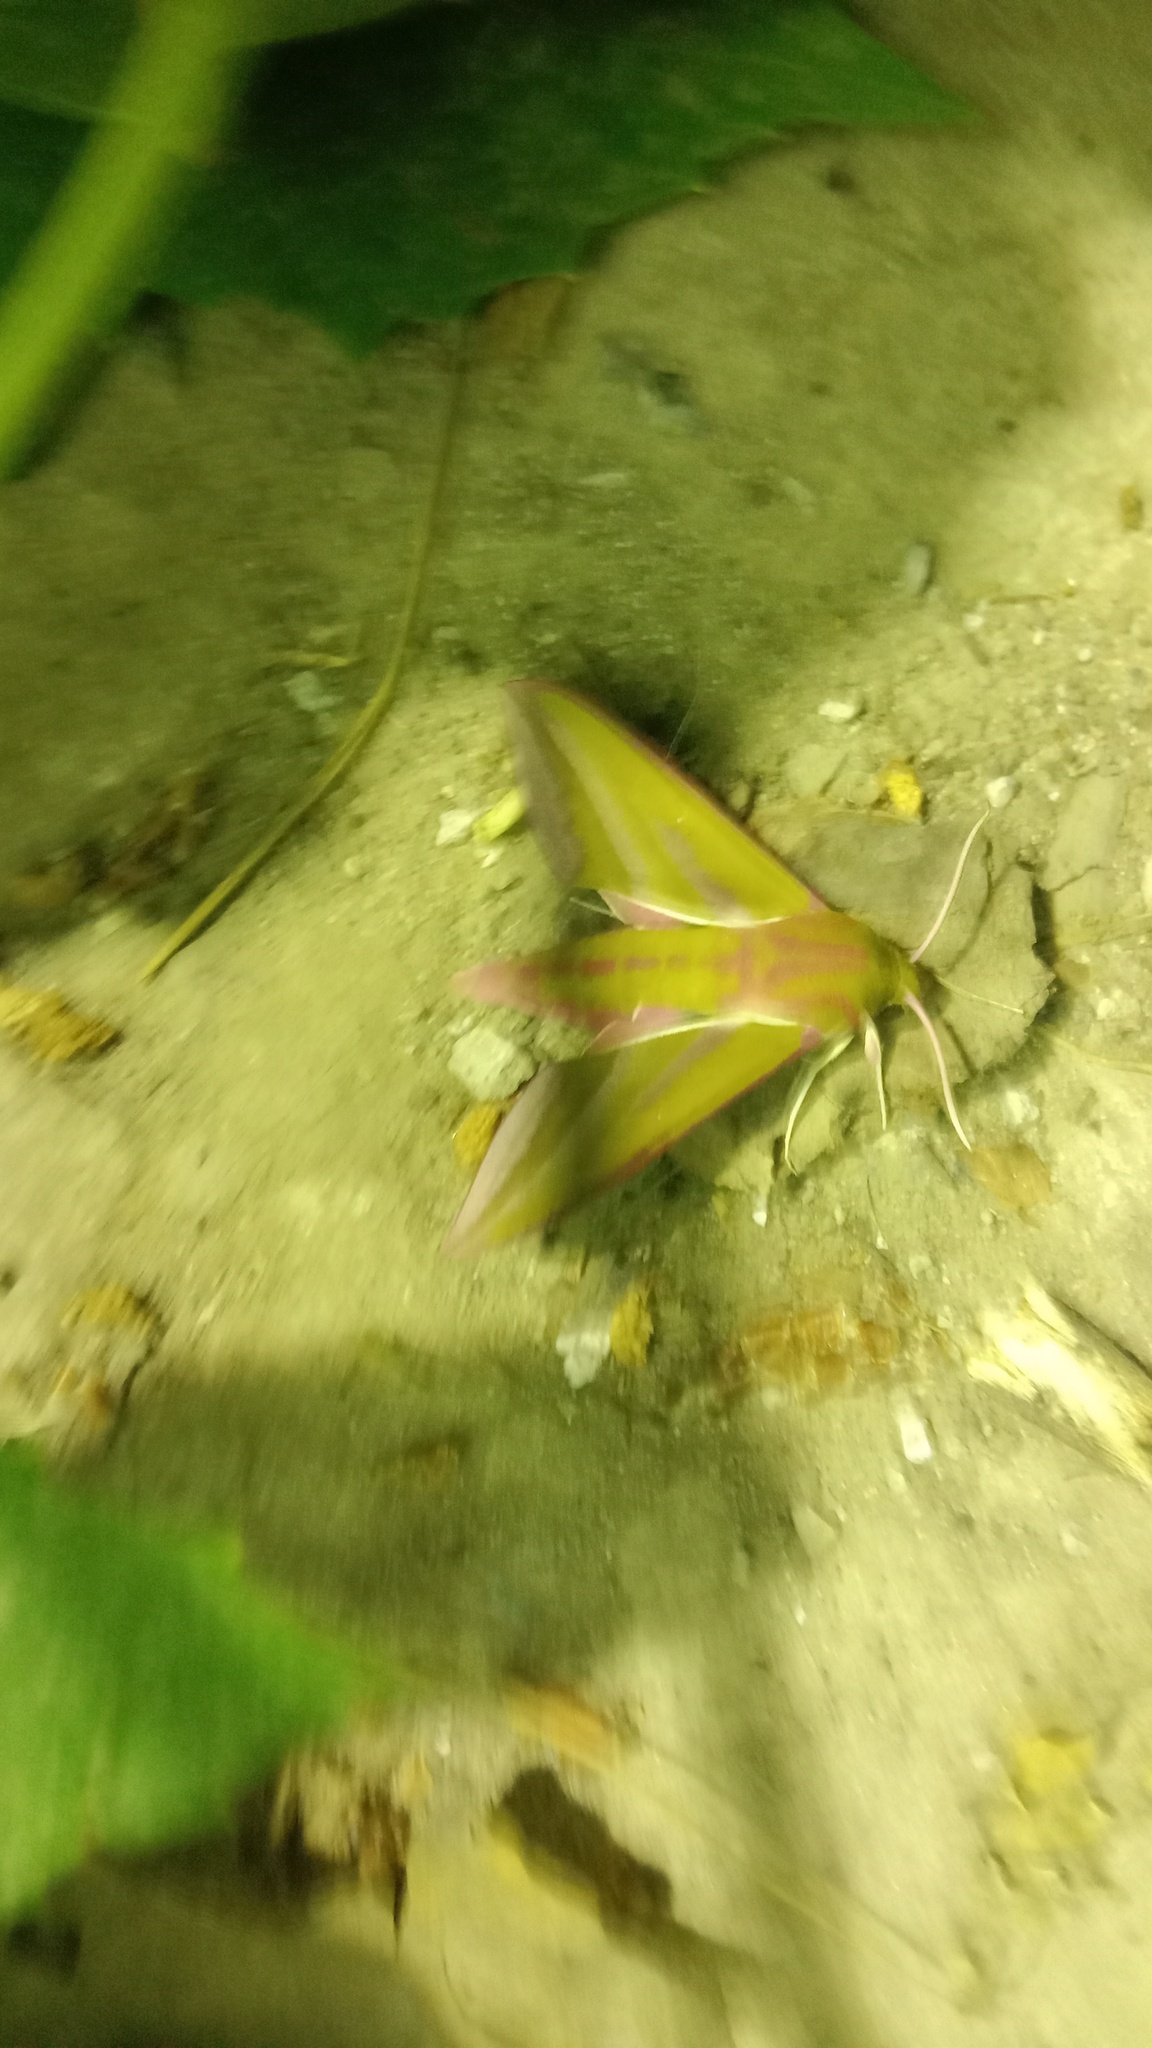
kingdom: Animalia
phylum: Arthropoda
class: Insecta
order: Lepidoptera
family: Sphingidae
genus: Deilephila
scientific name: Deilephila elpenor
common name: Elephant hawk-moth
